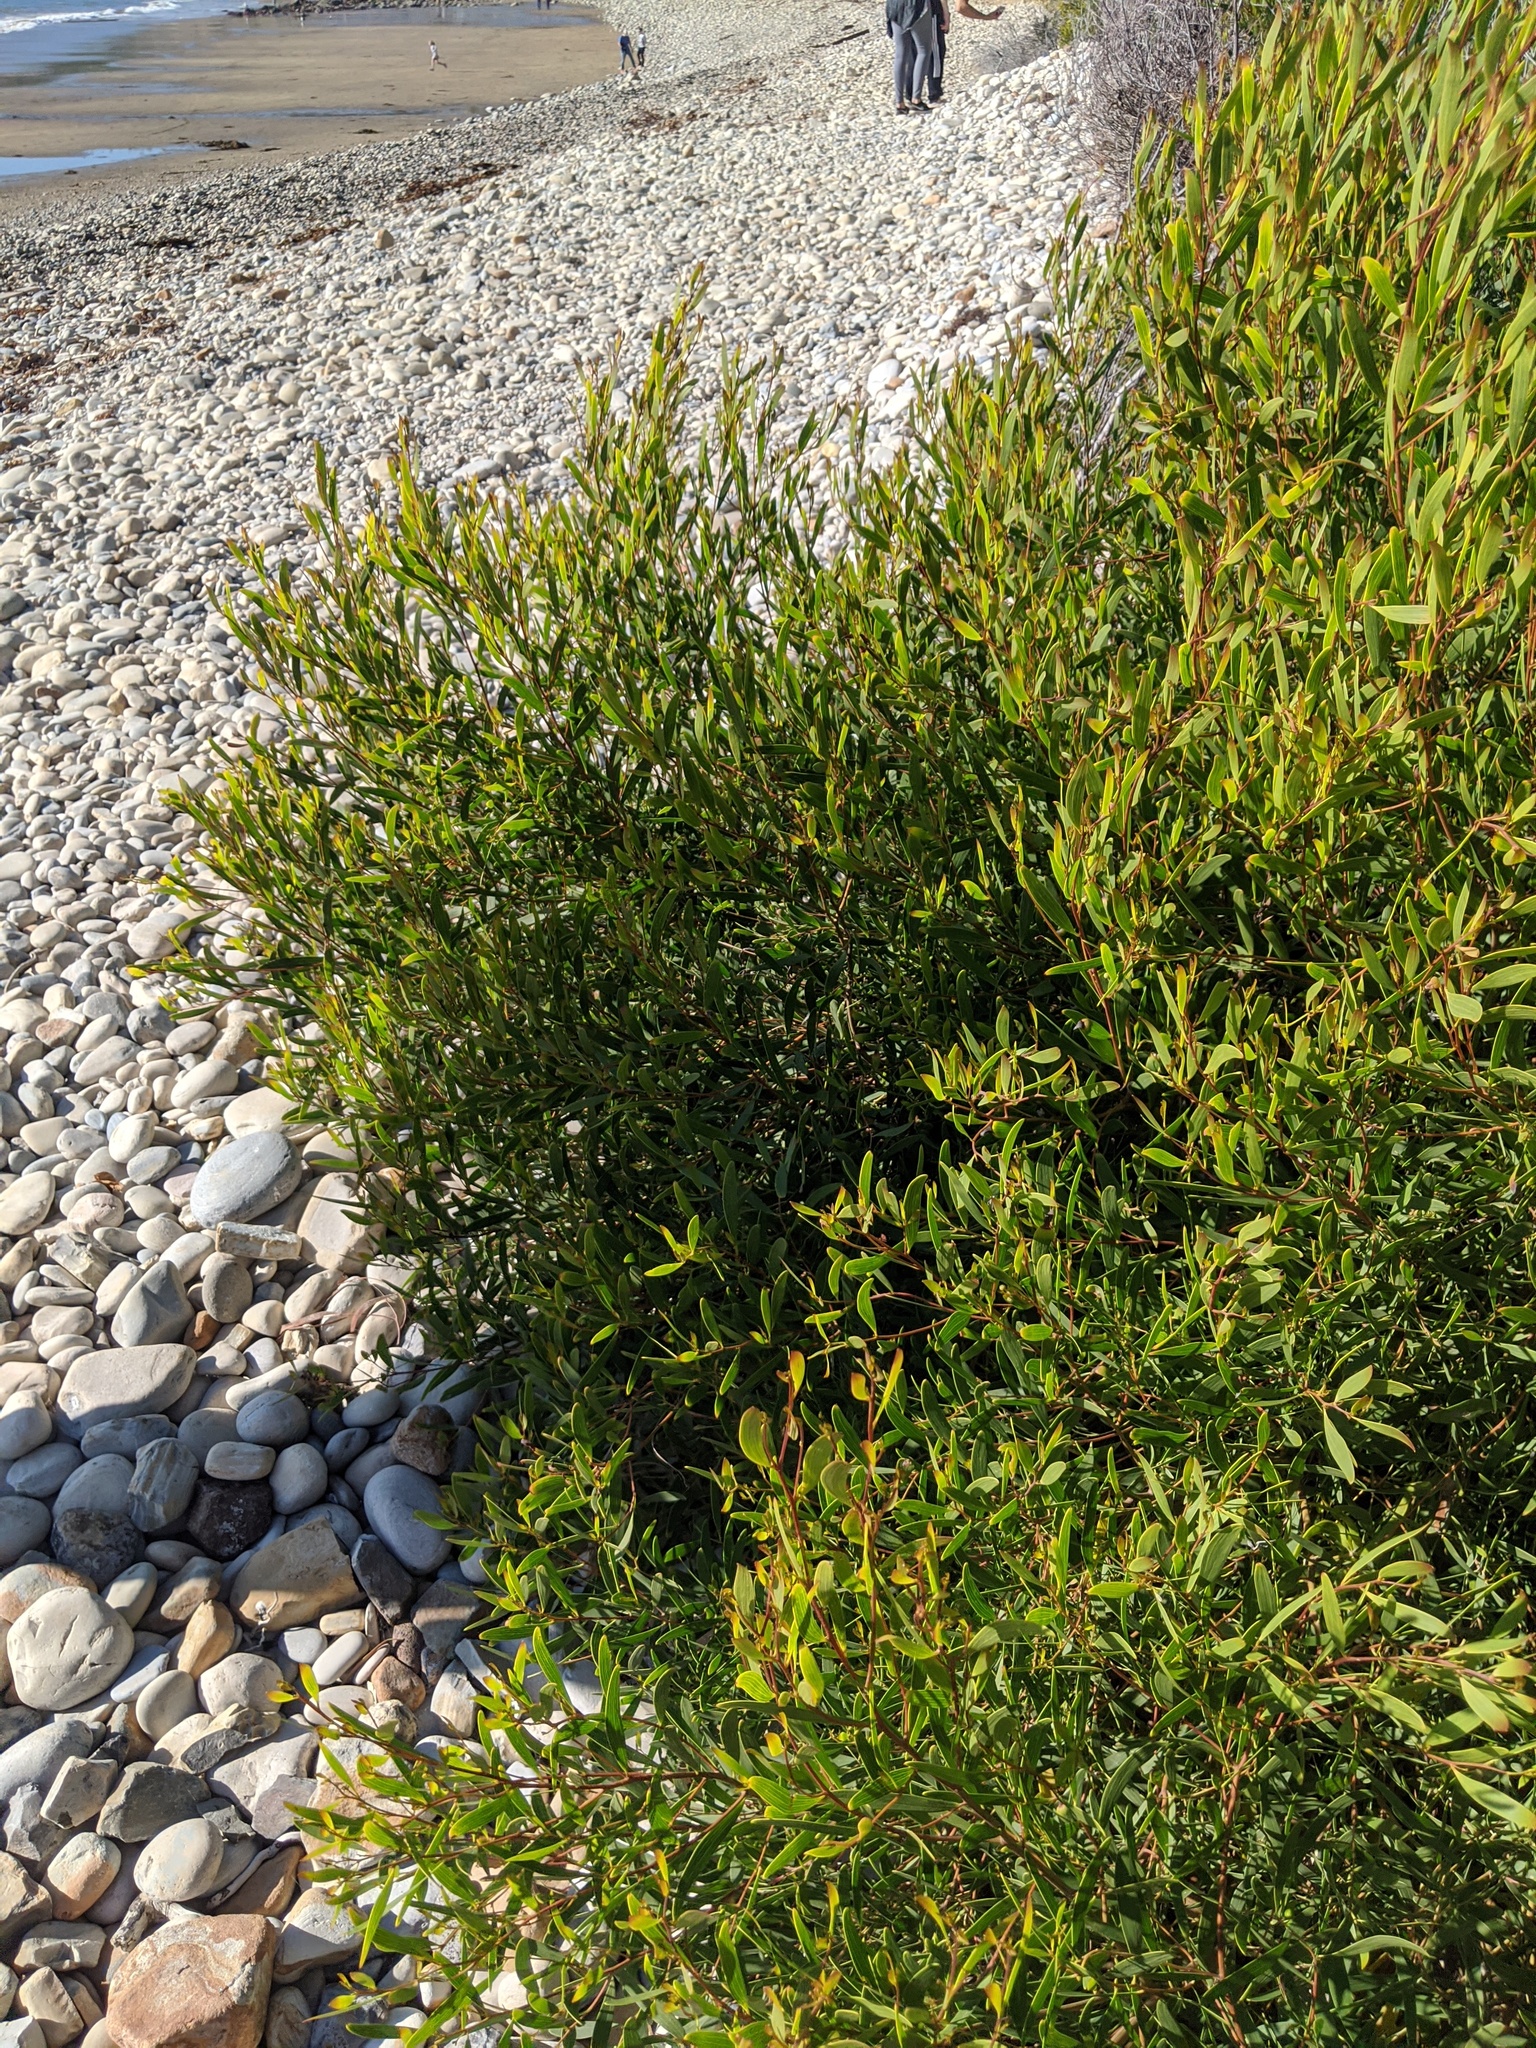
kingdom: Plantae
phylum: Tracheophyta
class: Magnoliopsida
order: Fabales
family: Fabaceae
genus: Acacia
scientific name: Acacia cyclops
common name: Coastal wattle
